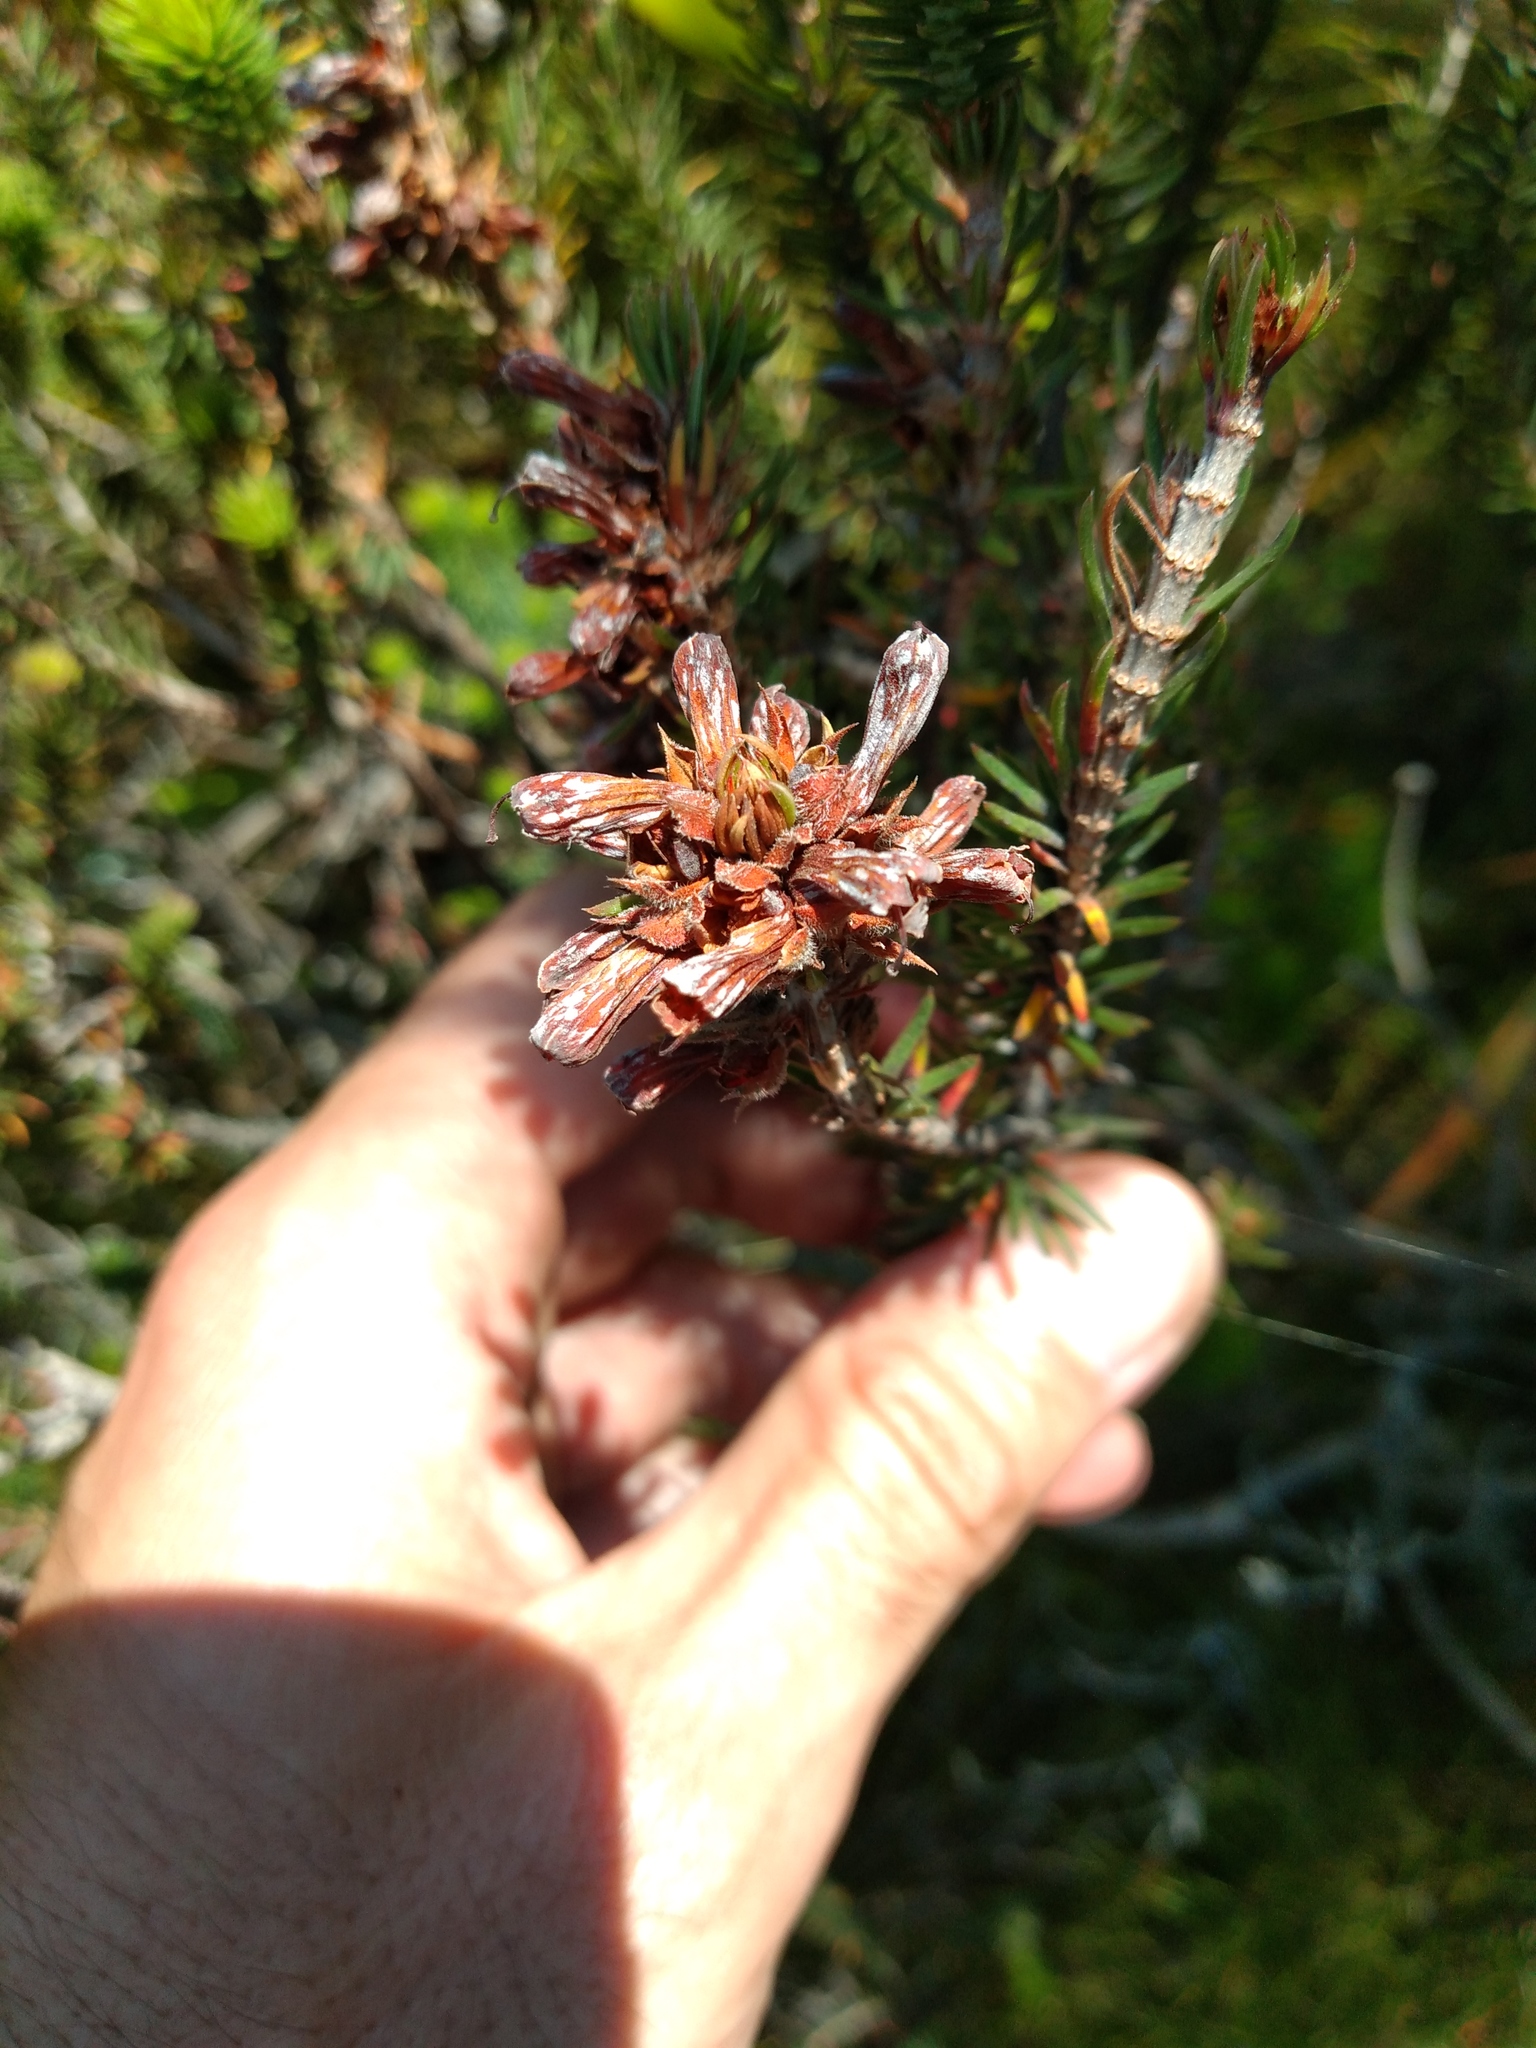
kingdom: Plantae
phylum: Tracheophyta
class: Magnoliopsida
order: Ericales
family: Ericaceae
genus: Erica
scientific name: Erica abietina
